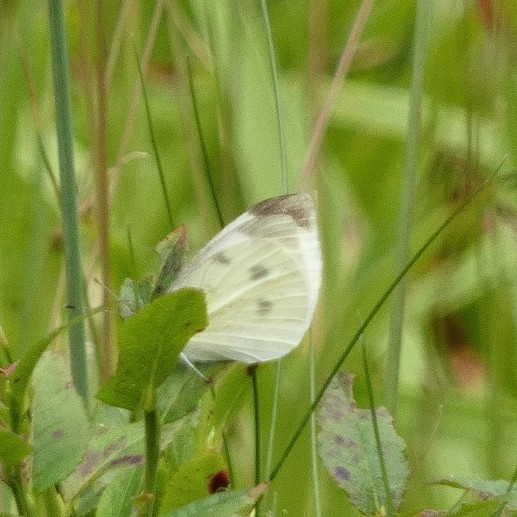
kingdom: Animalia
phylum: Arthropoda
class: Insecta
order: Lepidoptera
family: Pieridae
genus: Pieris
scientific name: Pieris rapae
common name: Small white
